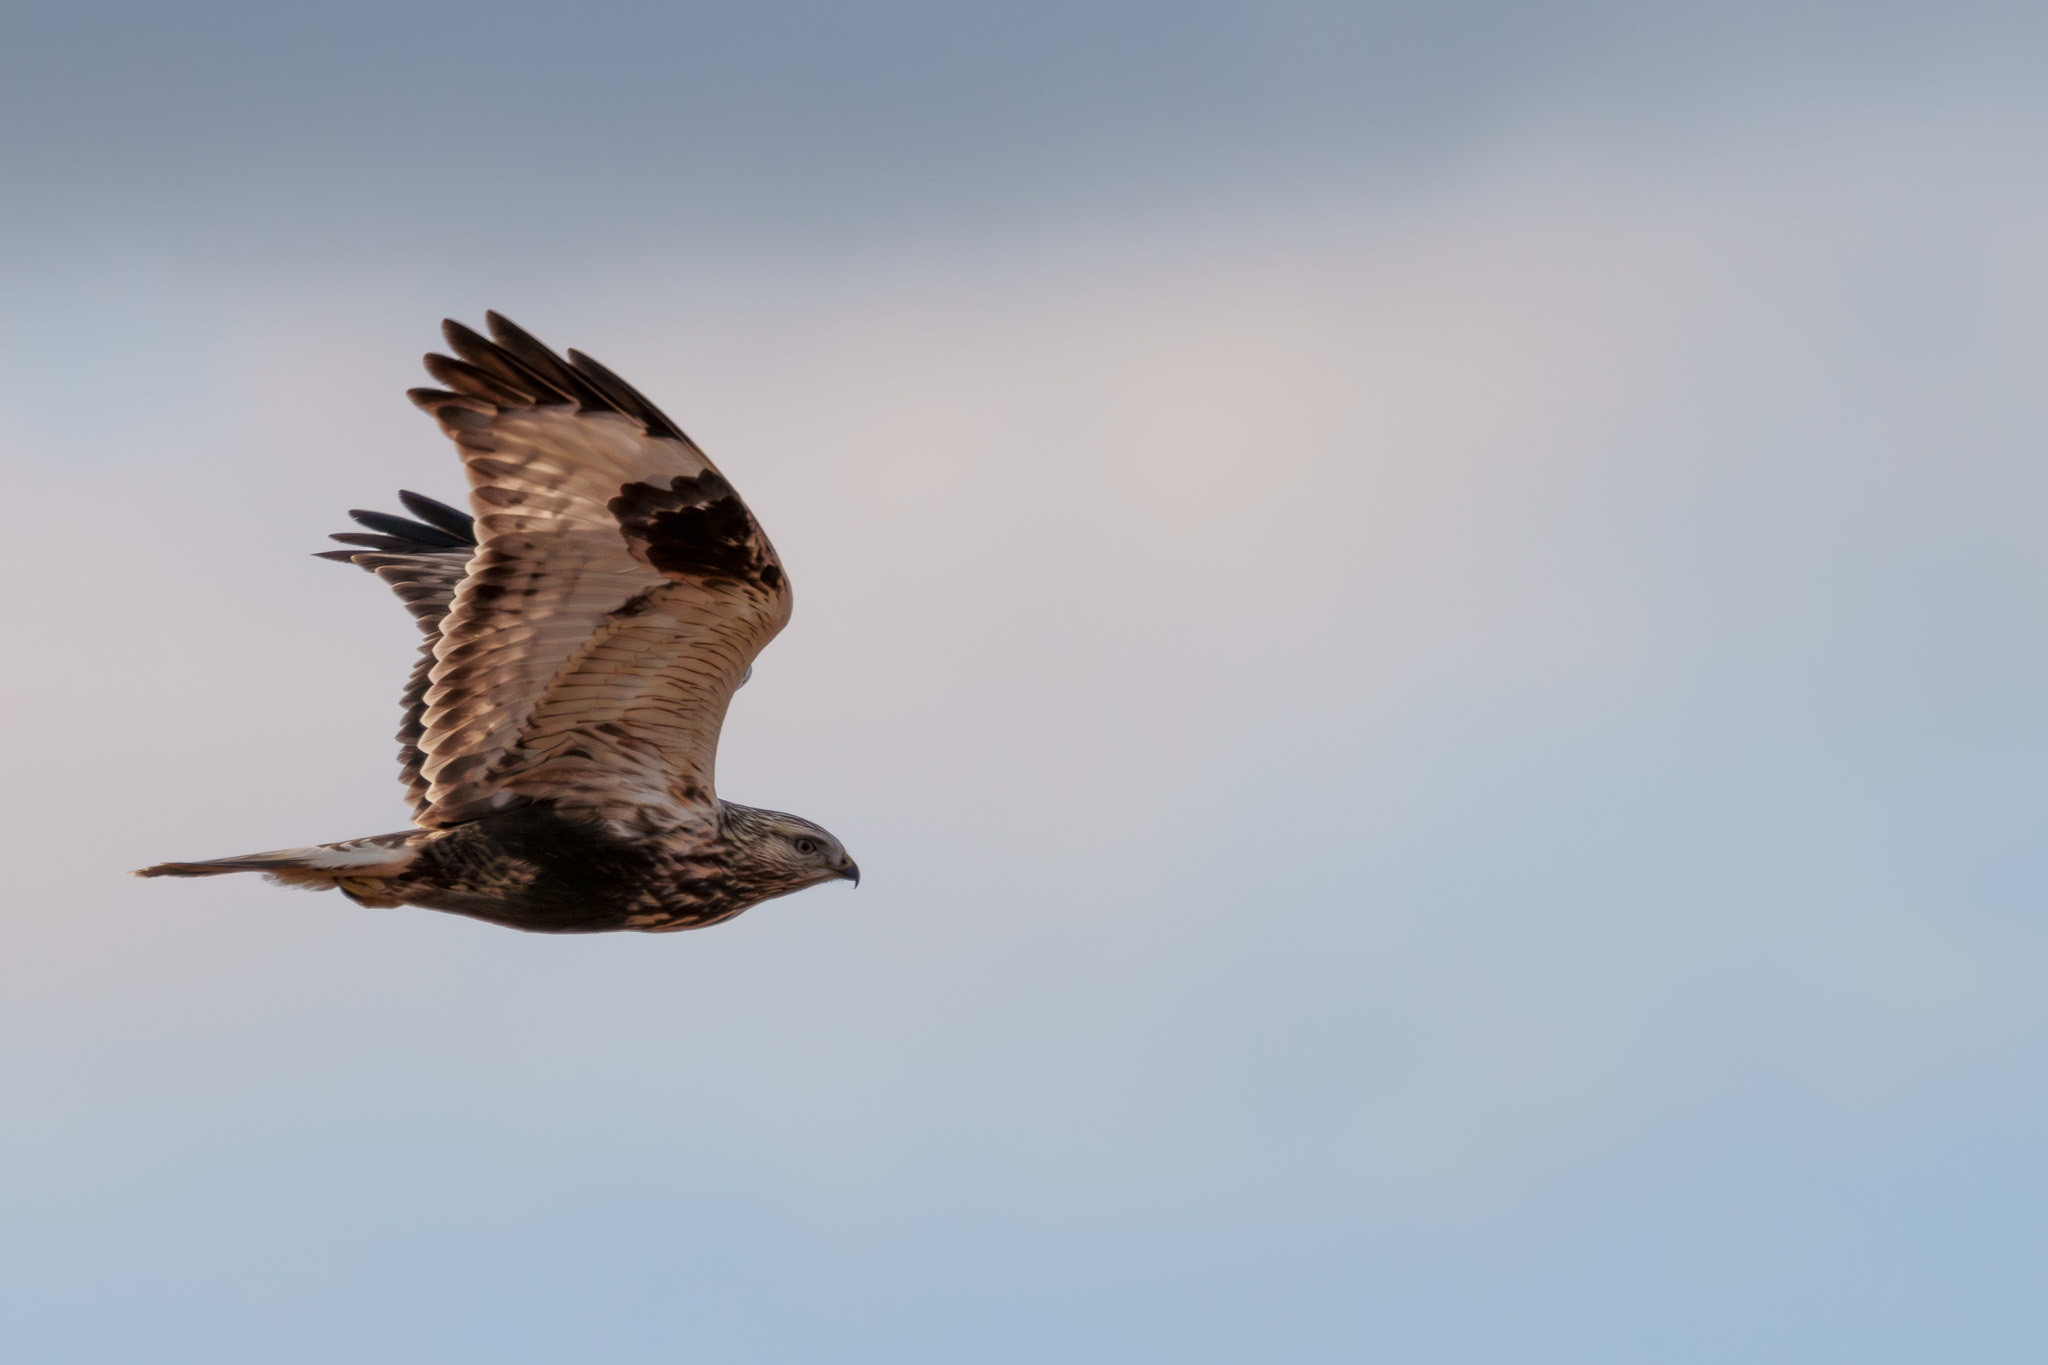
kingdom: Animalia
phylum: Chordata
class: Aves
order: Accipitriformes
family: Accipitridae
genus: Buteo
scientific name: Buteo lagopus
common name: Rough-legged buzzard
